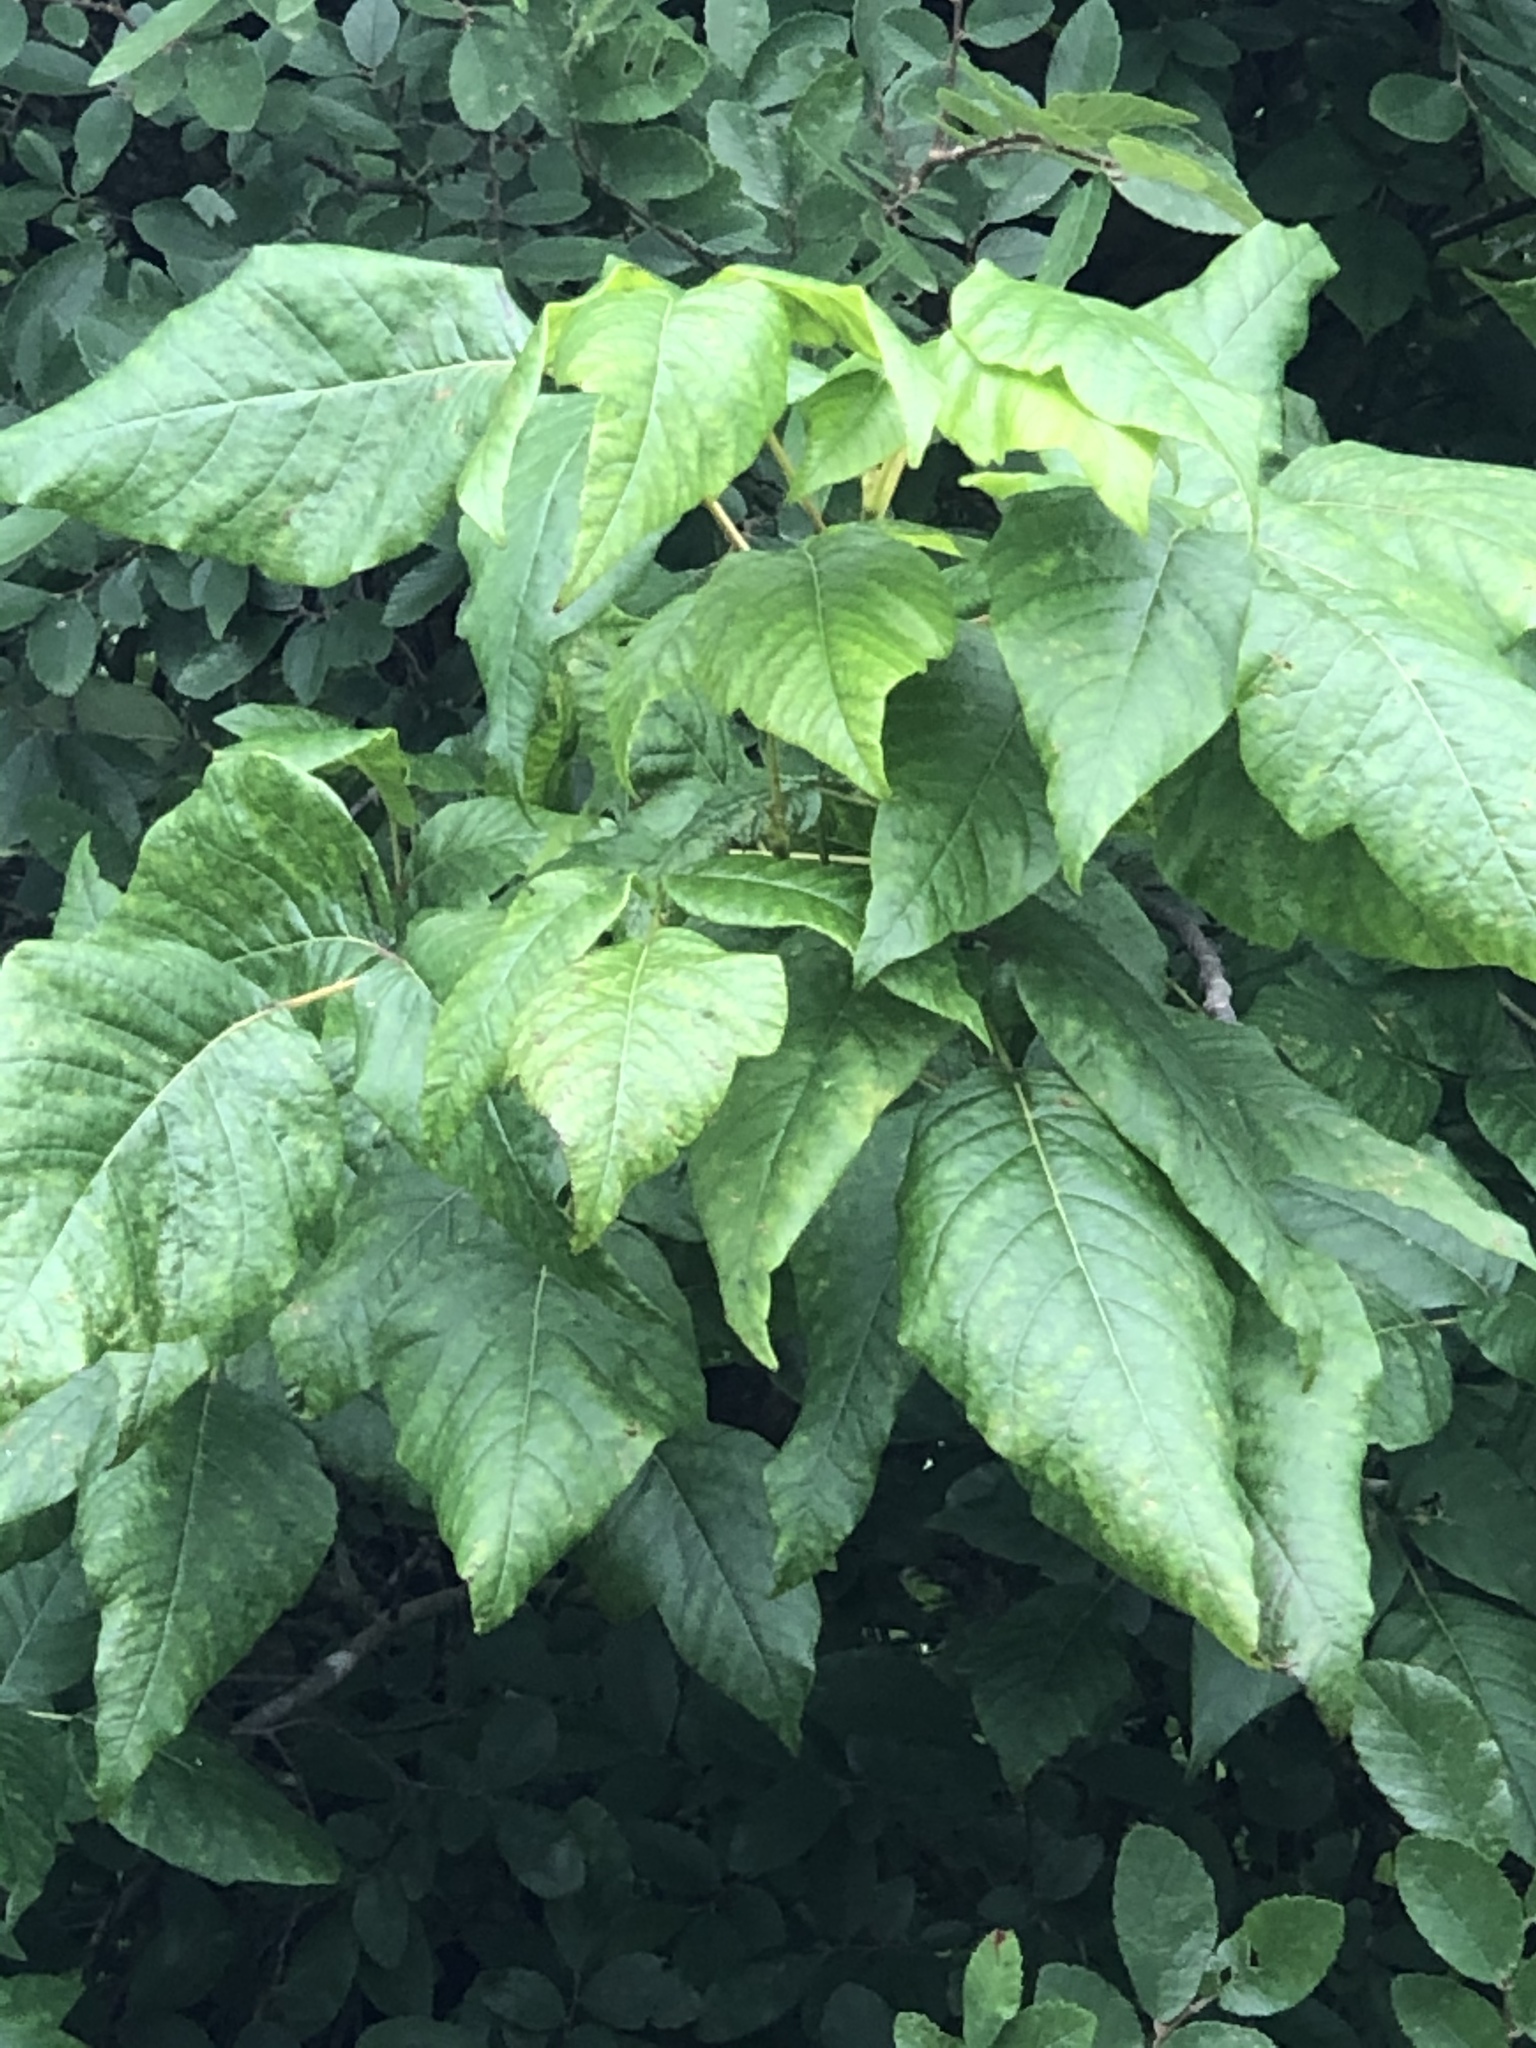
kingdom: Plantae
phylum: Tracheophyta
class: Magnoliopsida
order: Sapindales
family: Anacardiaceae
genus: Toxicodendron
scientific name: Toxicodendron radicans
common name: Poison ivy
